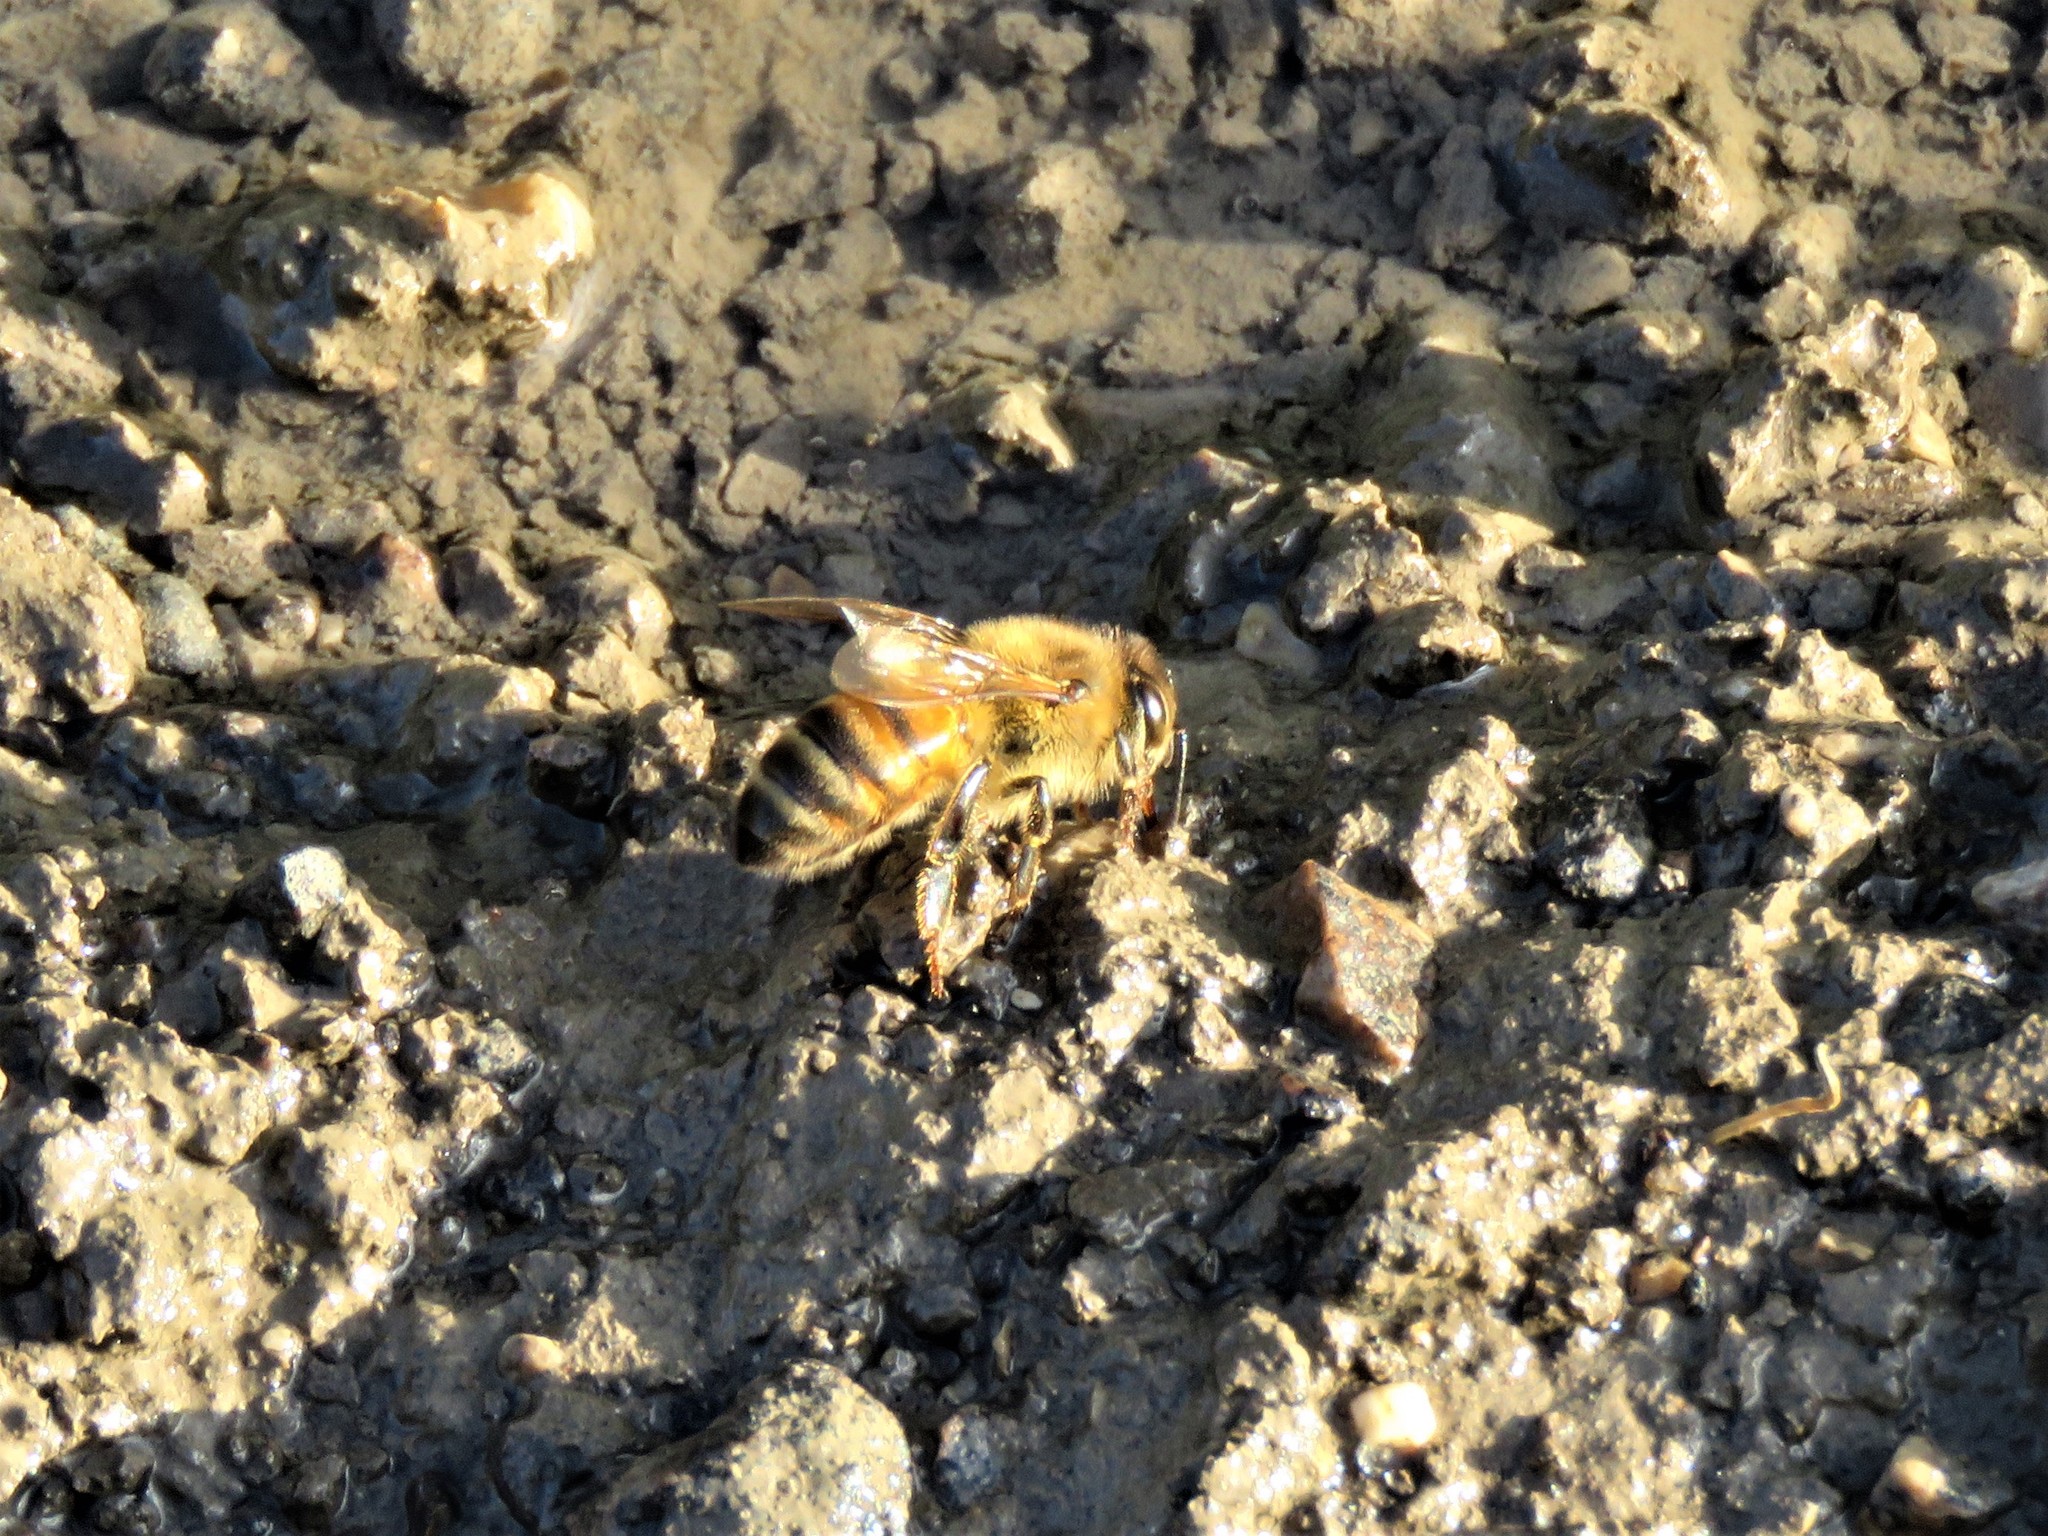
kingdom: Animalia
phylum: Arthropoda
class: Insecta
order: Hymenoptera
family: Apidae
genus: Apis
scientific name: Apis mellifera
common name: Honey bee
